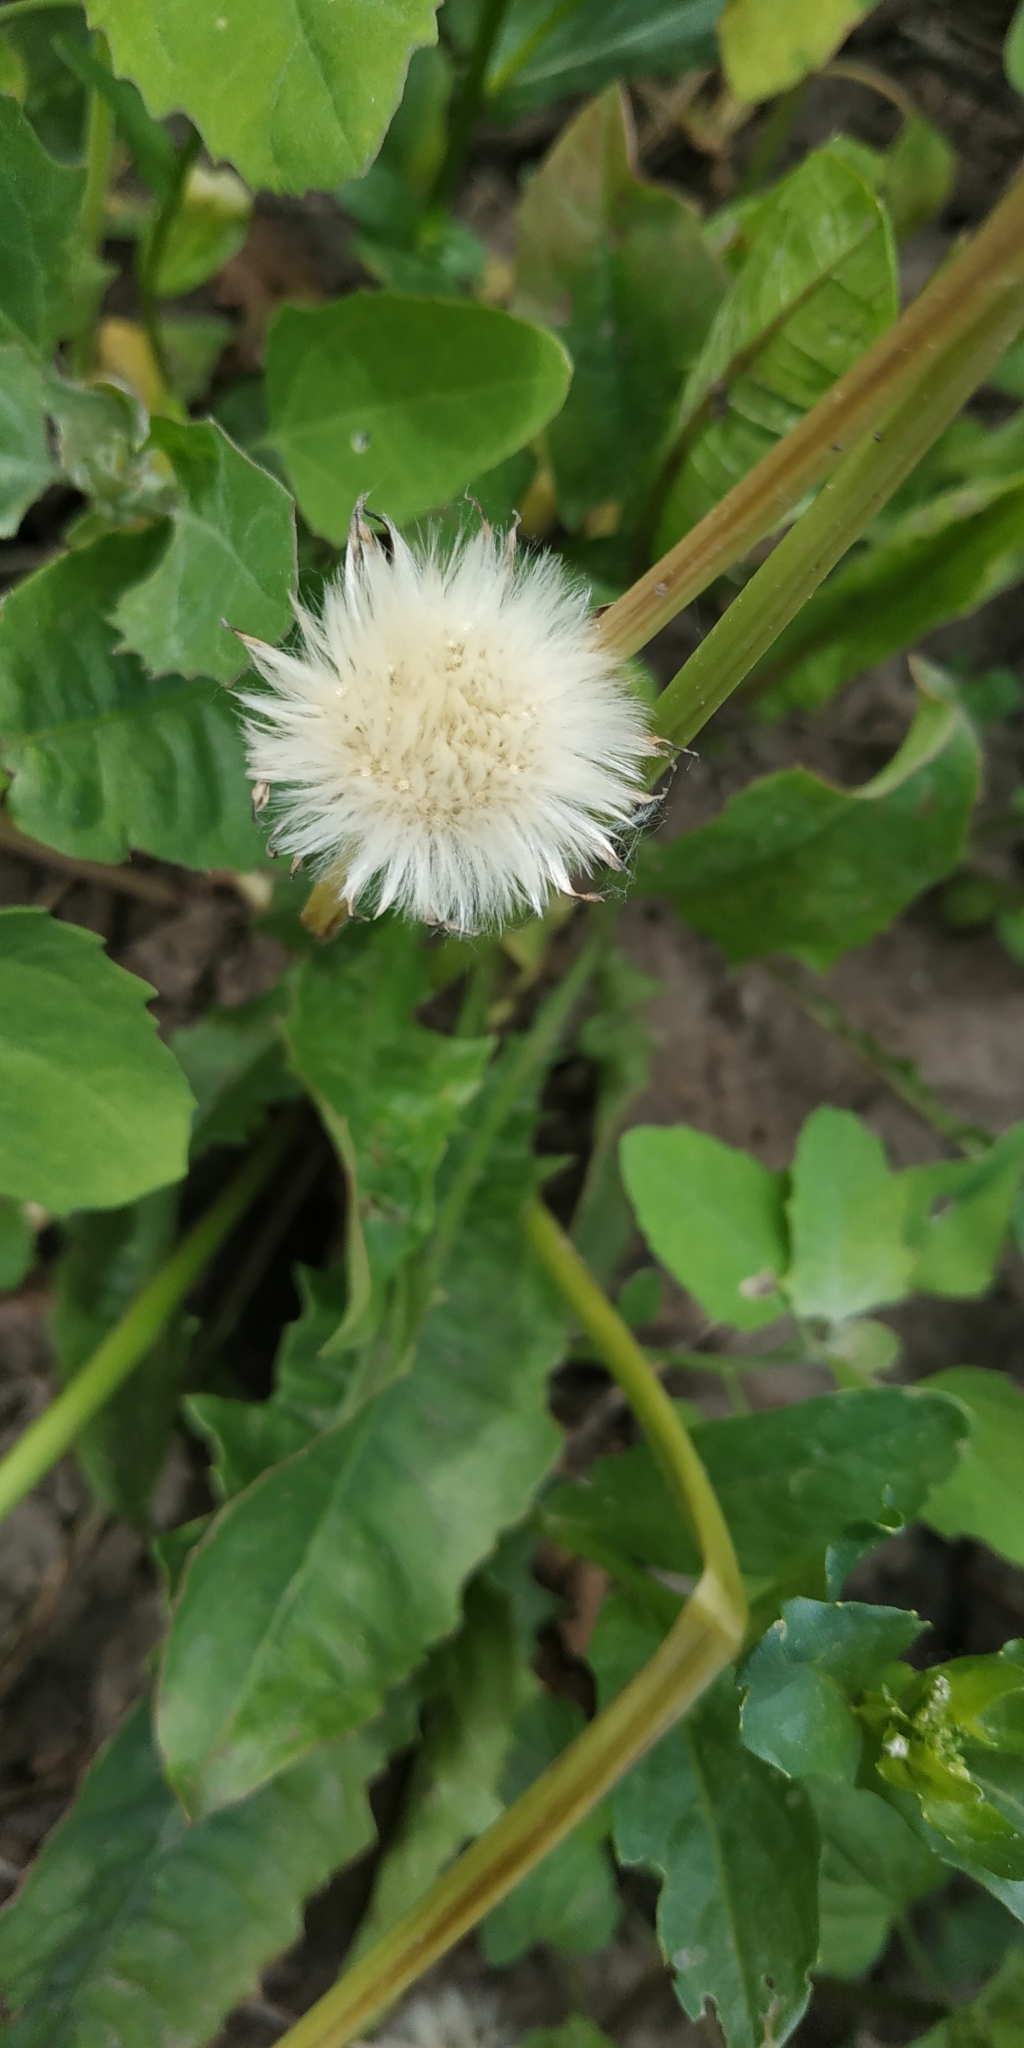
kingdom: Plantae
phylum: Tracheophyta
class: Magnoliopsida
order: Asterales
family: Asteraceae
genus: Taraxacum
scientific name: Taraxacum officinale
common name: Common dandelion
